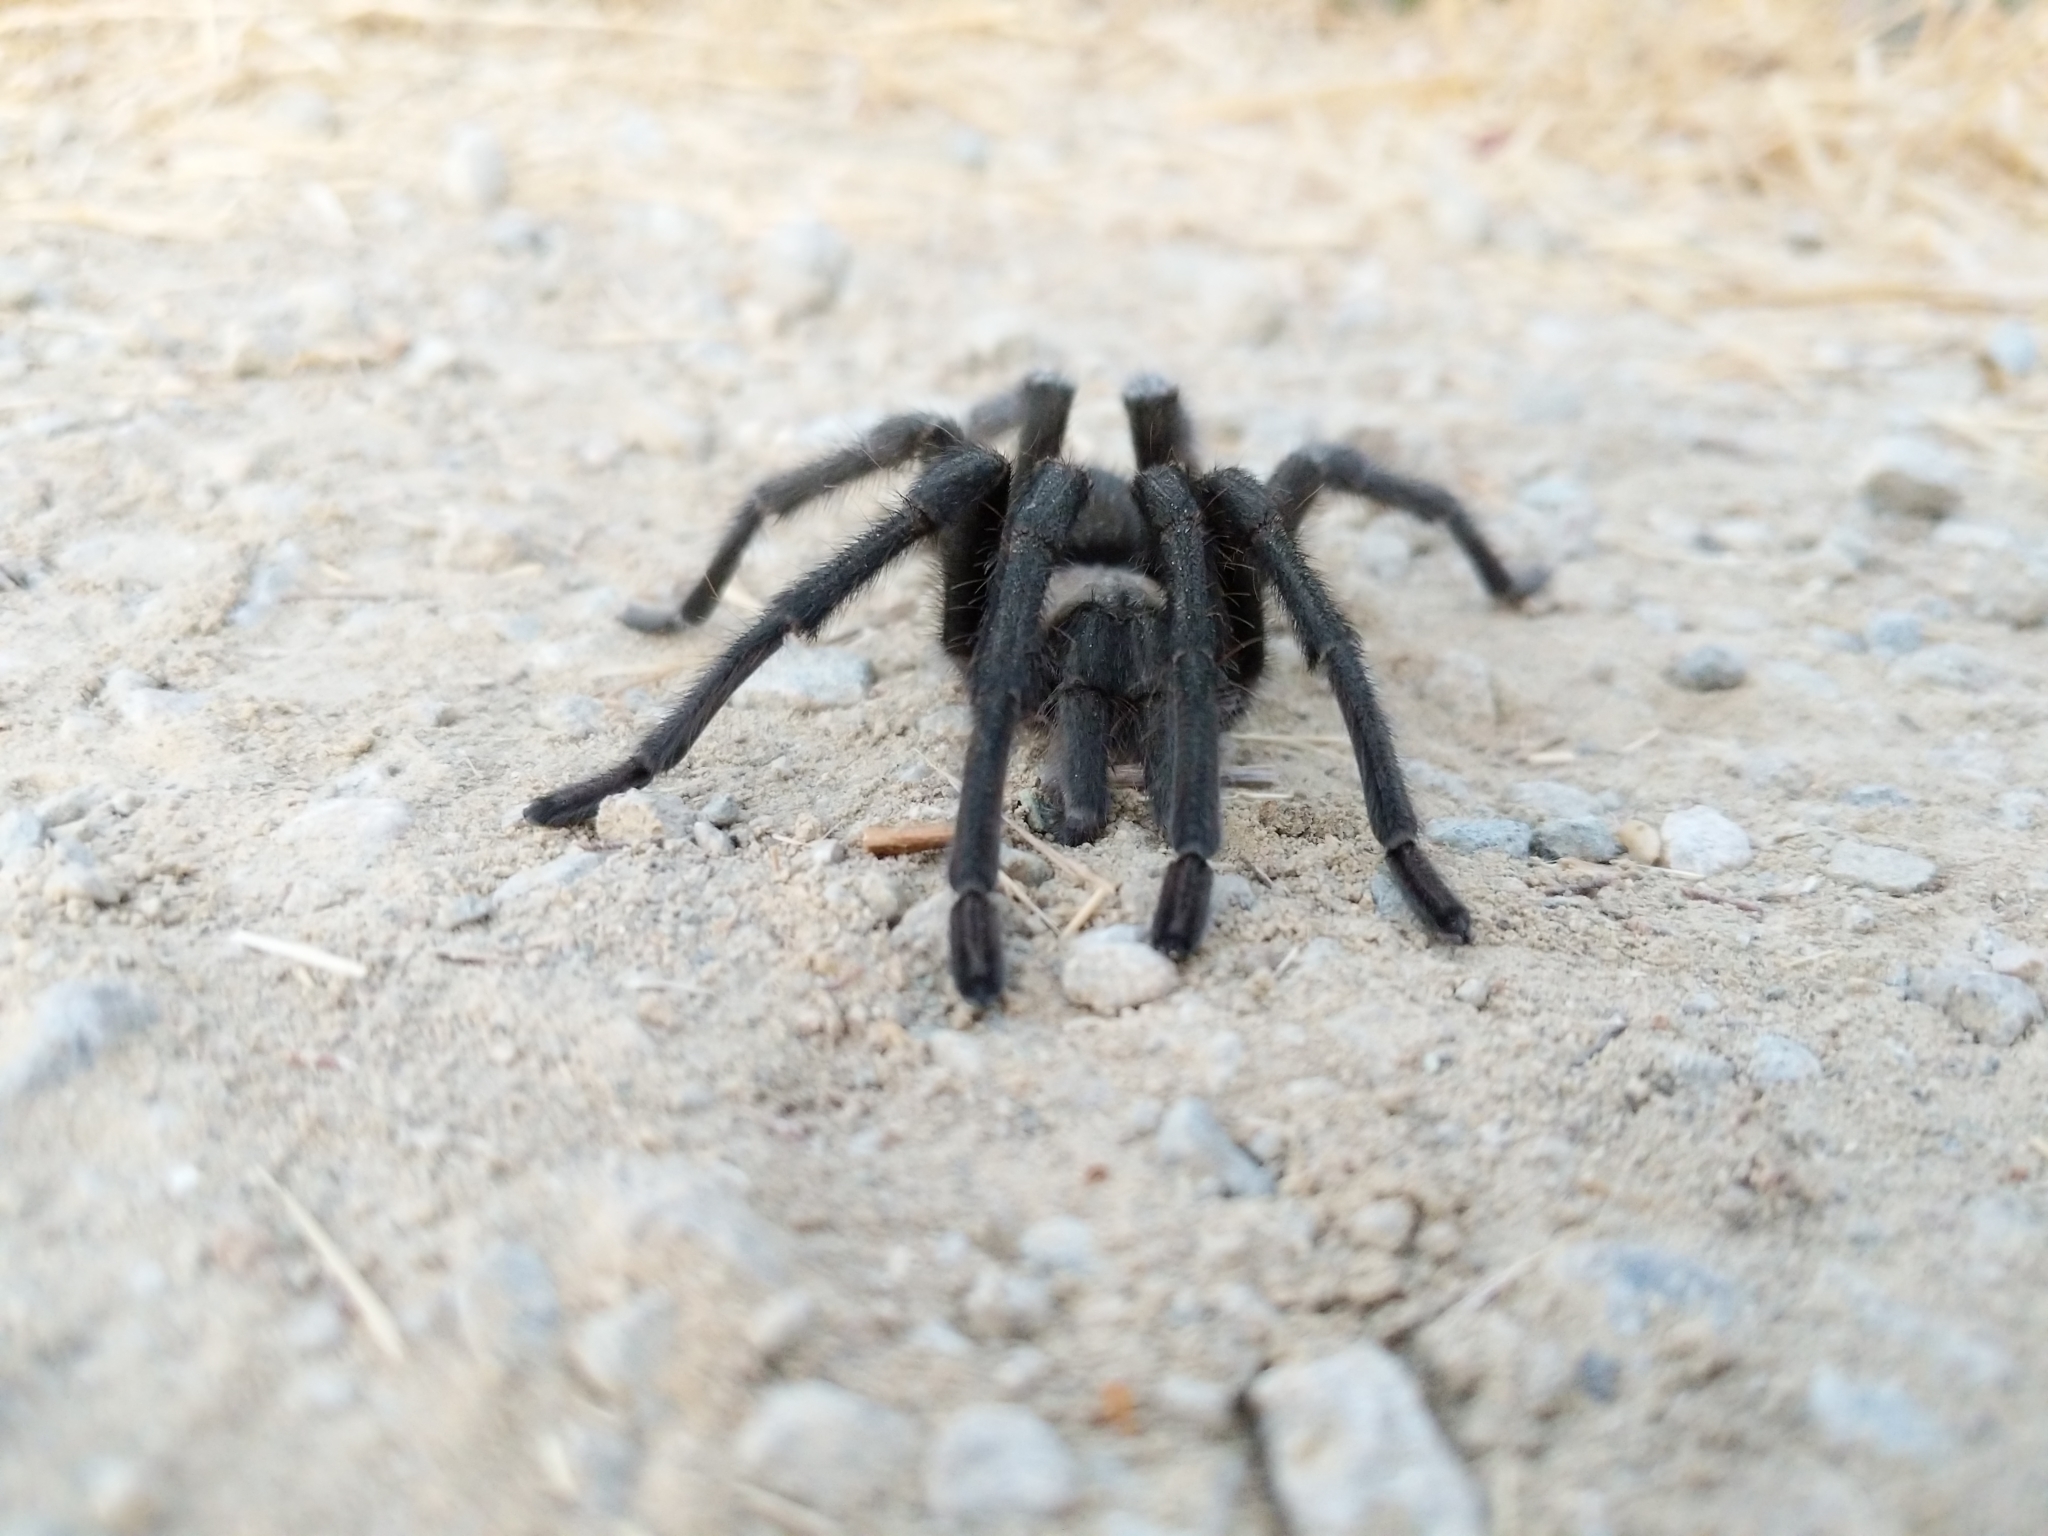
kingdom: Animalia
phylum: Arthropoda
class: Arachnida
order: Araneae
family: Theraphosidae
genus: Aphonopelma
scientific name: Aphonopelma iodius
